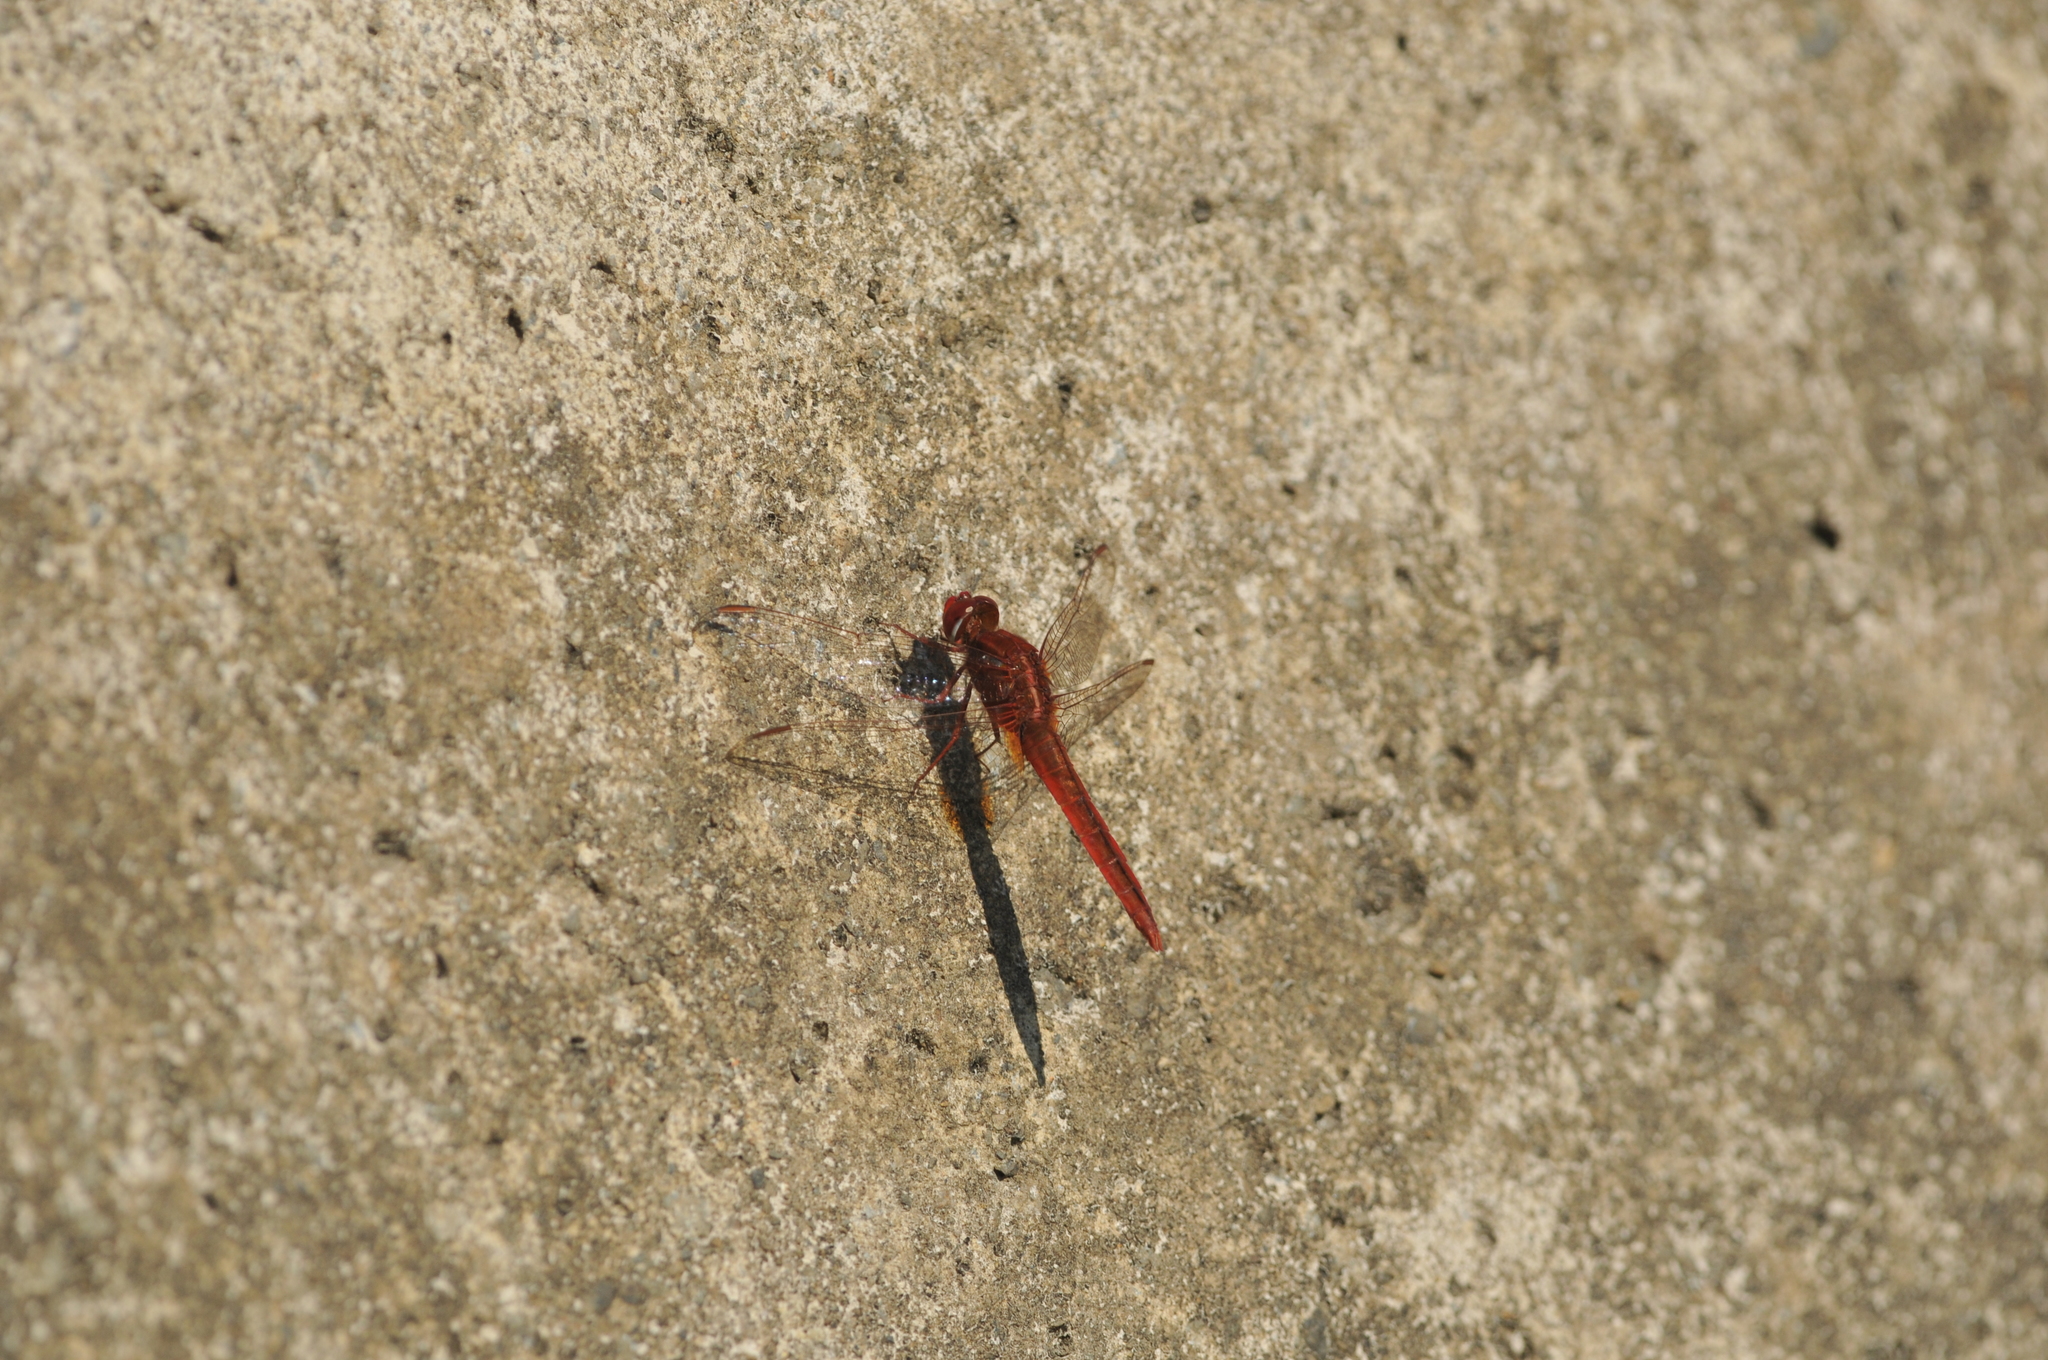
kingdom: Animalia
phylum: Arthropoda
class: Insecta
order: Odonata
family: Libellulidae
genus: Crocothemis
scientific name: Crocothemis servilia
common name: Scarlet skimmer
